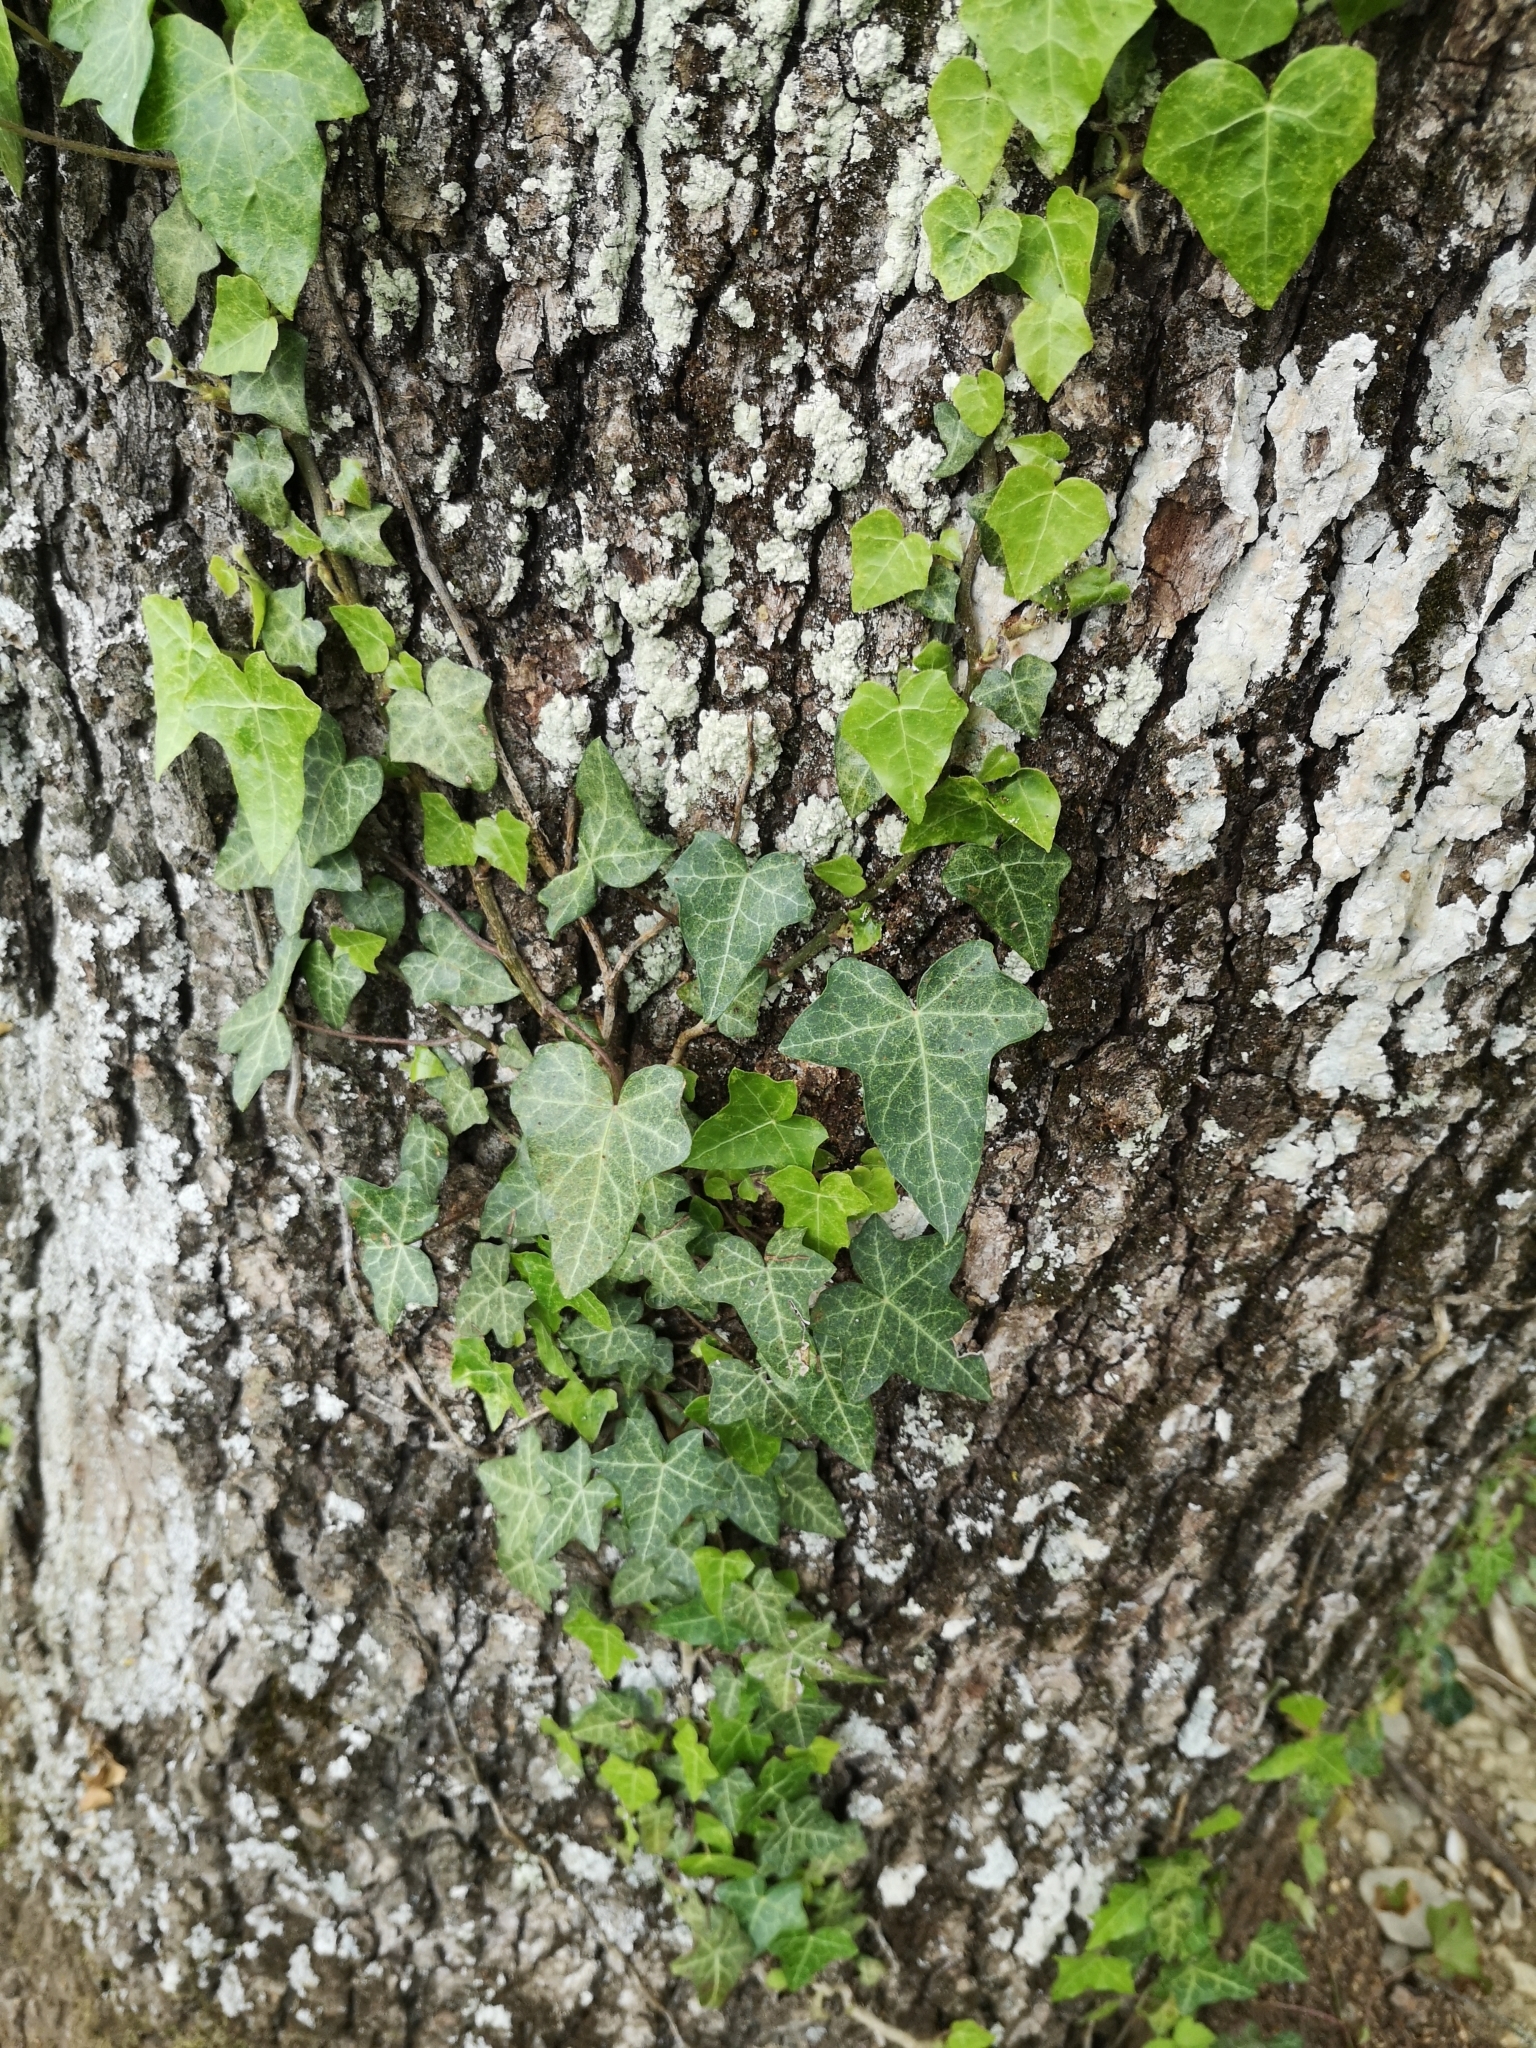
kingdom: Plantae
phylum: Tracheophyta
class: Magnoliopsida
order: Apiales
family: Araliaceae
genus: Hedera
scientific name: Hedera helix
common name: Ivy
